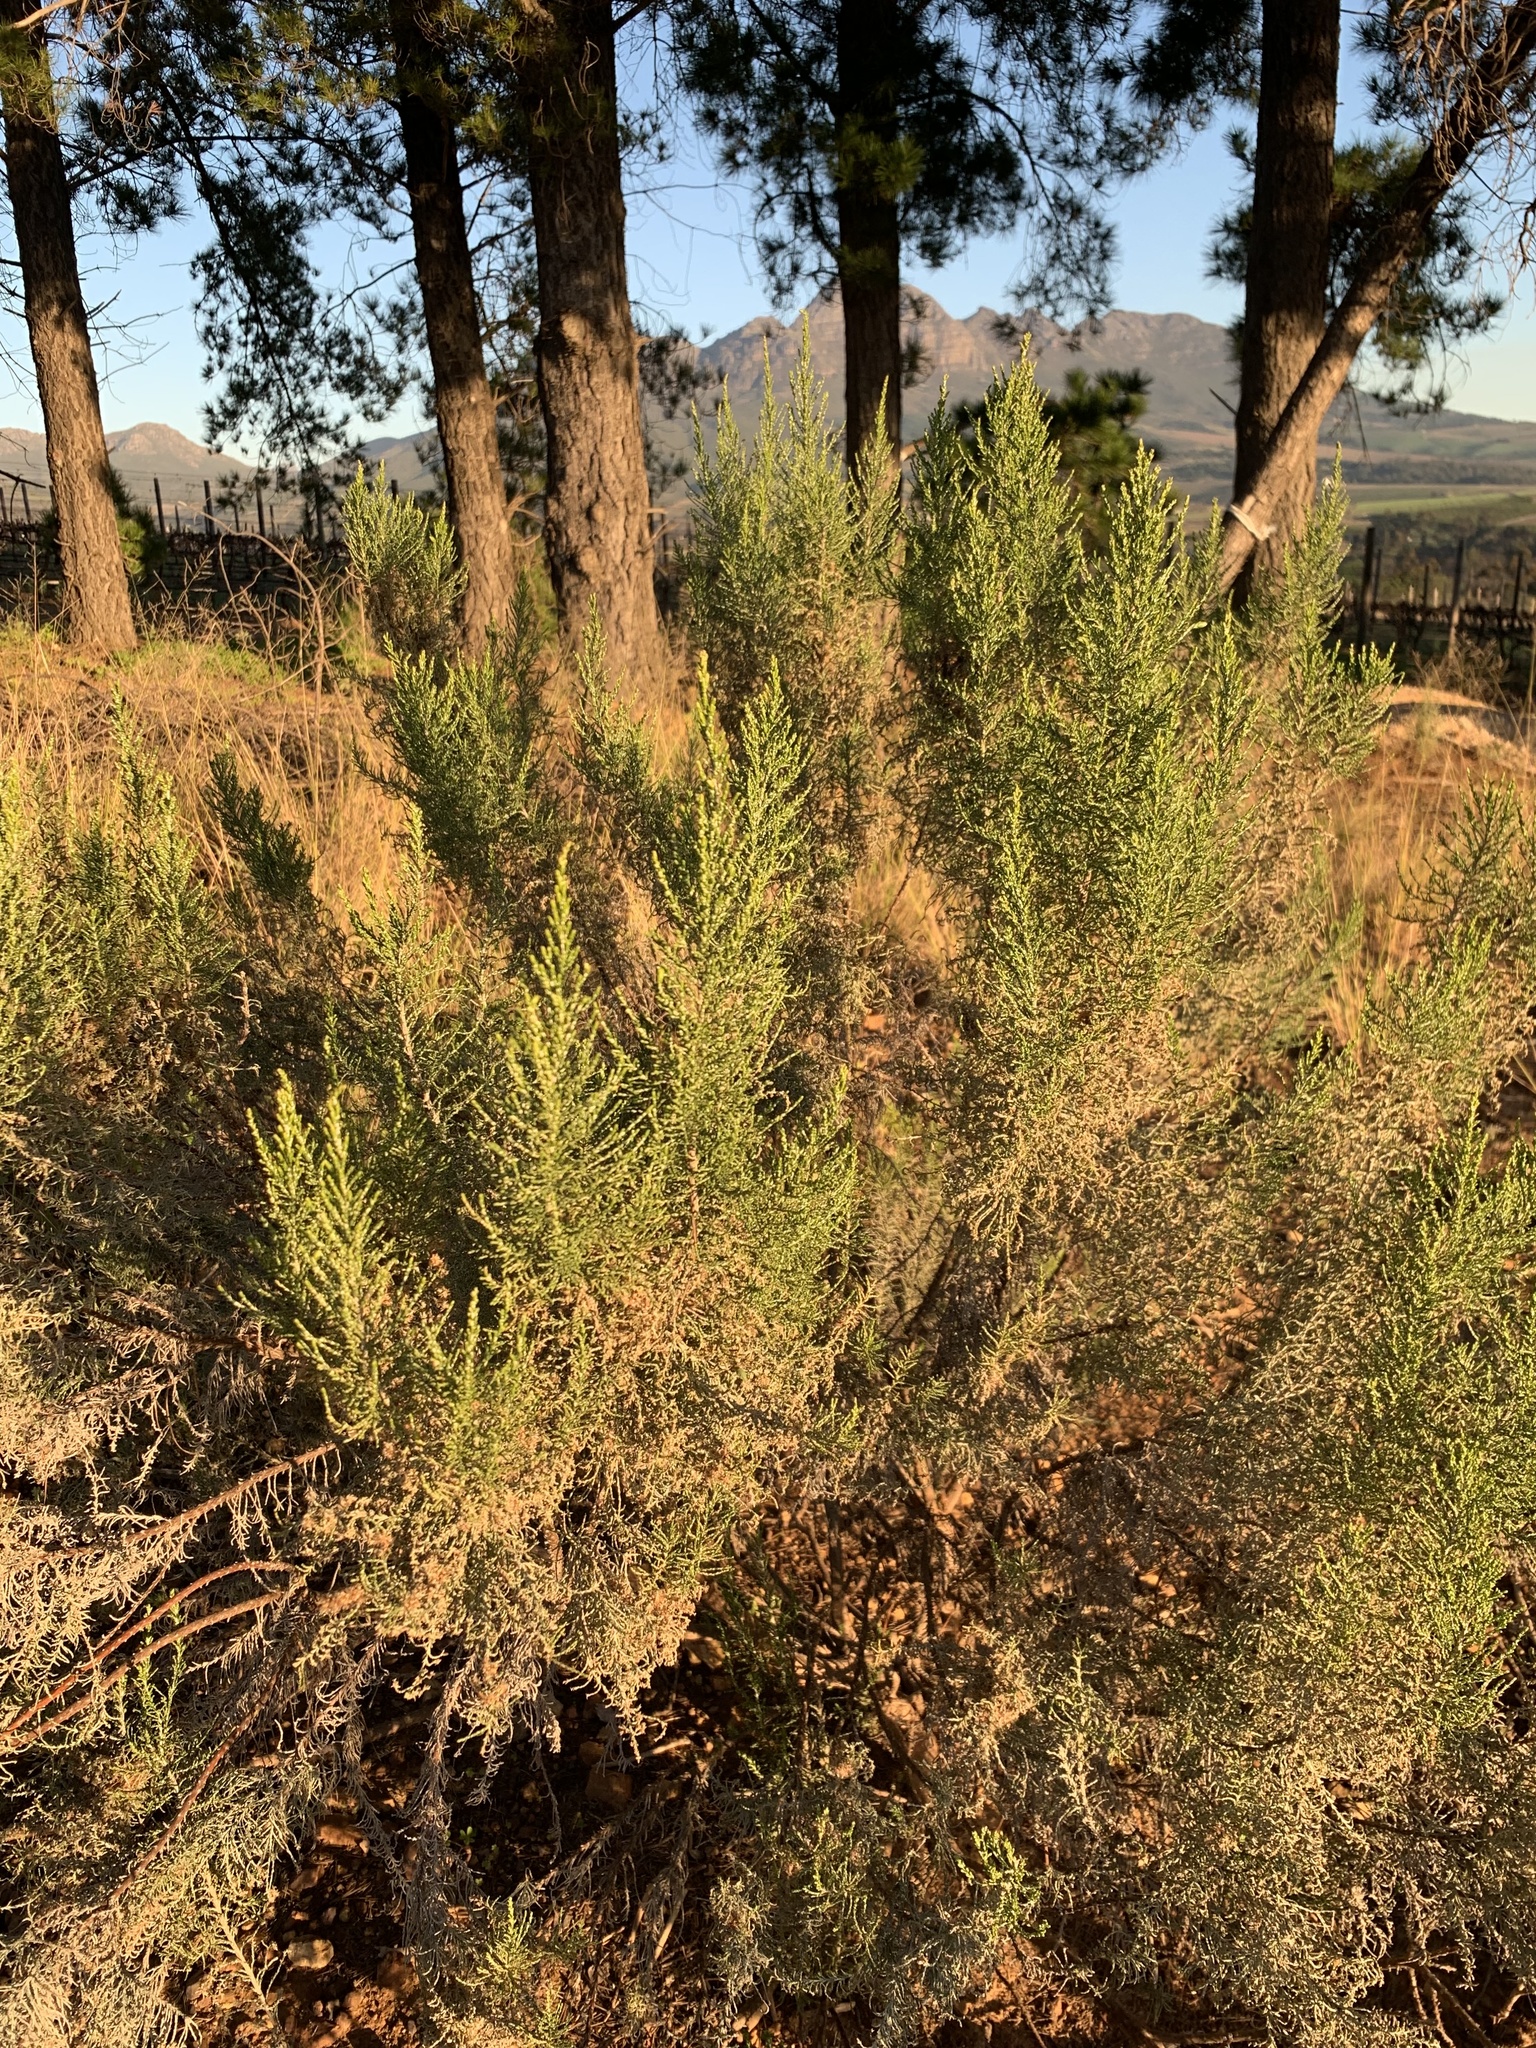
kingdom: Plantae
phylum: Tracheophyta
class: Magnoliopsida
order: Asterales
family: Asteraceae
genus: Dicerothamnus
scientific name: Dicerothamnus rhinocerotis
